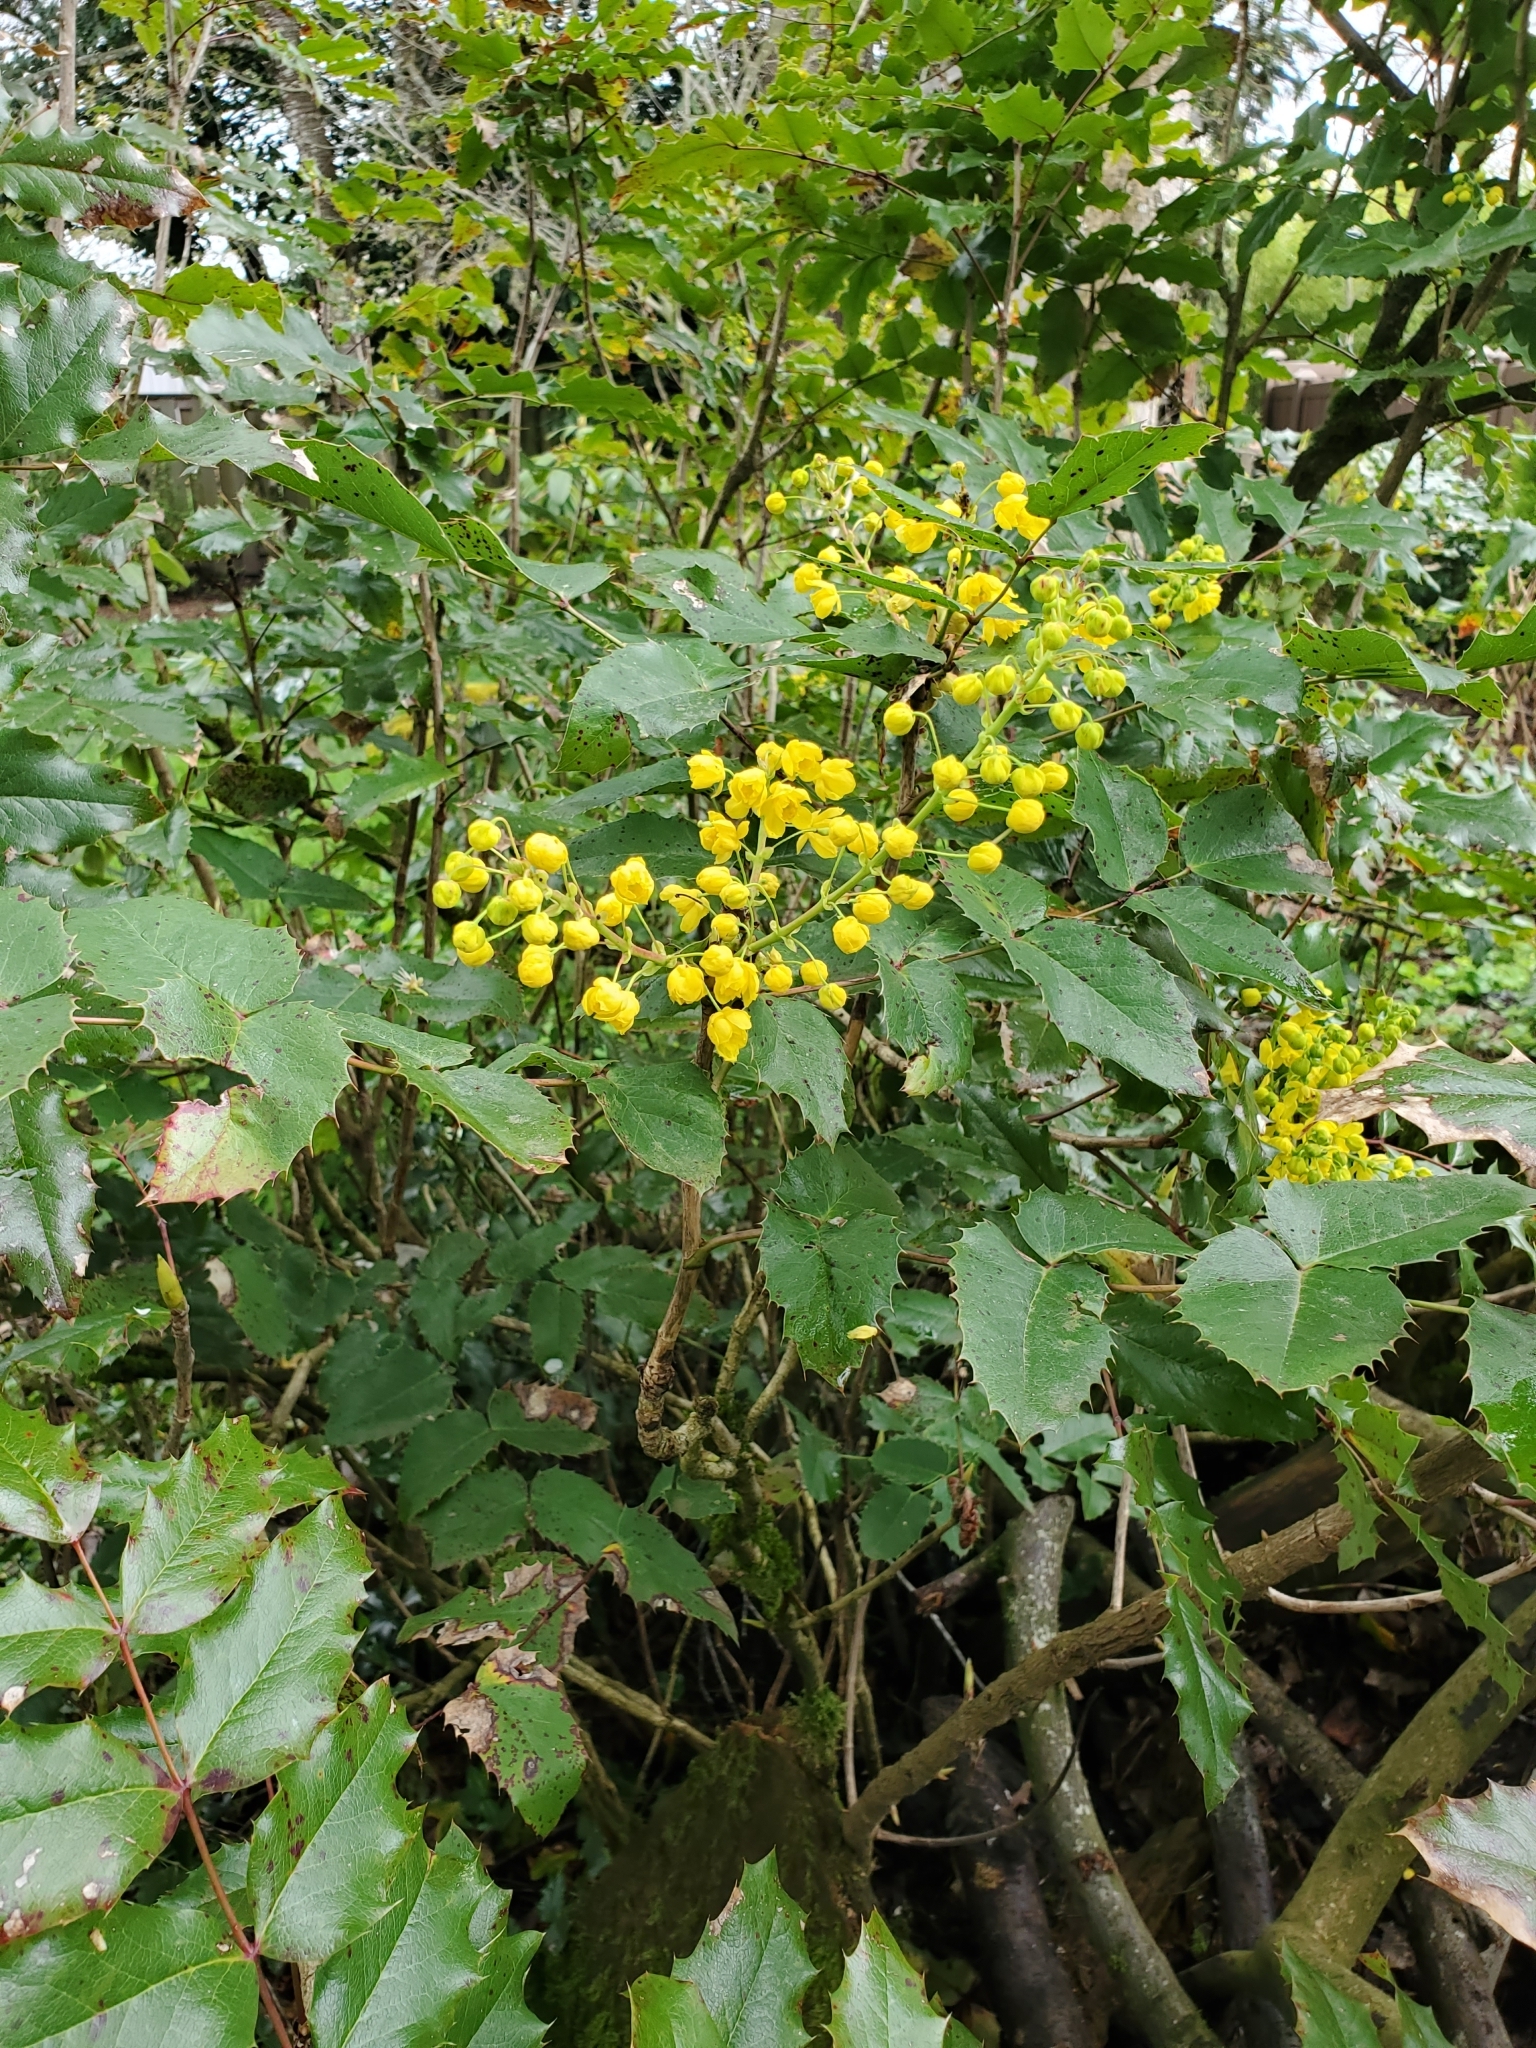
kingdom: Plantae
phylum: Tracheophyta
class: Magnoliopsida
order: Ranunculales
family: Berberidaceae
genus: Mahonia
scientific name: Mahonia aquifolium
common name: Oregon-grape
